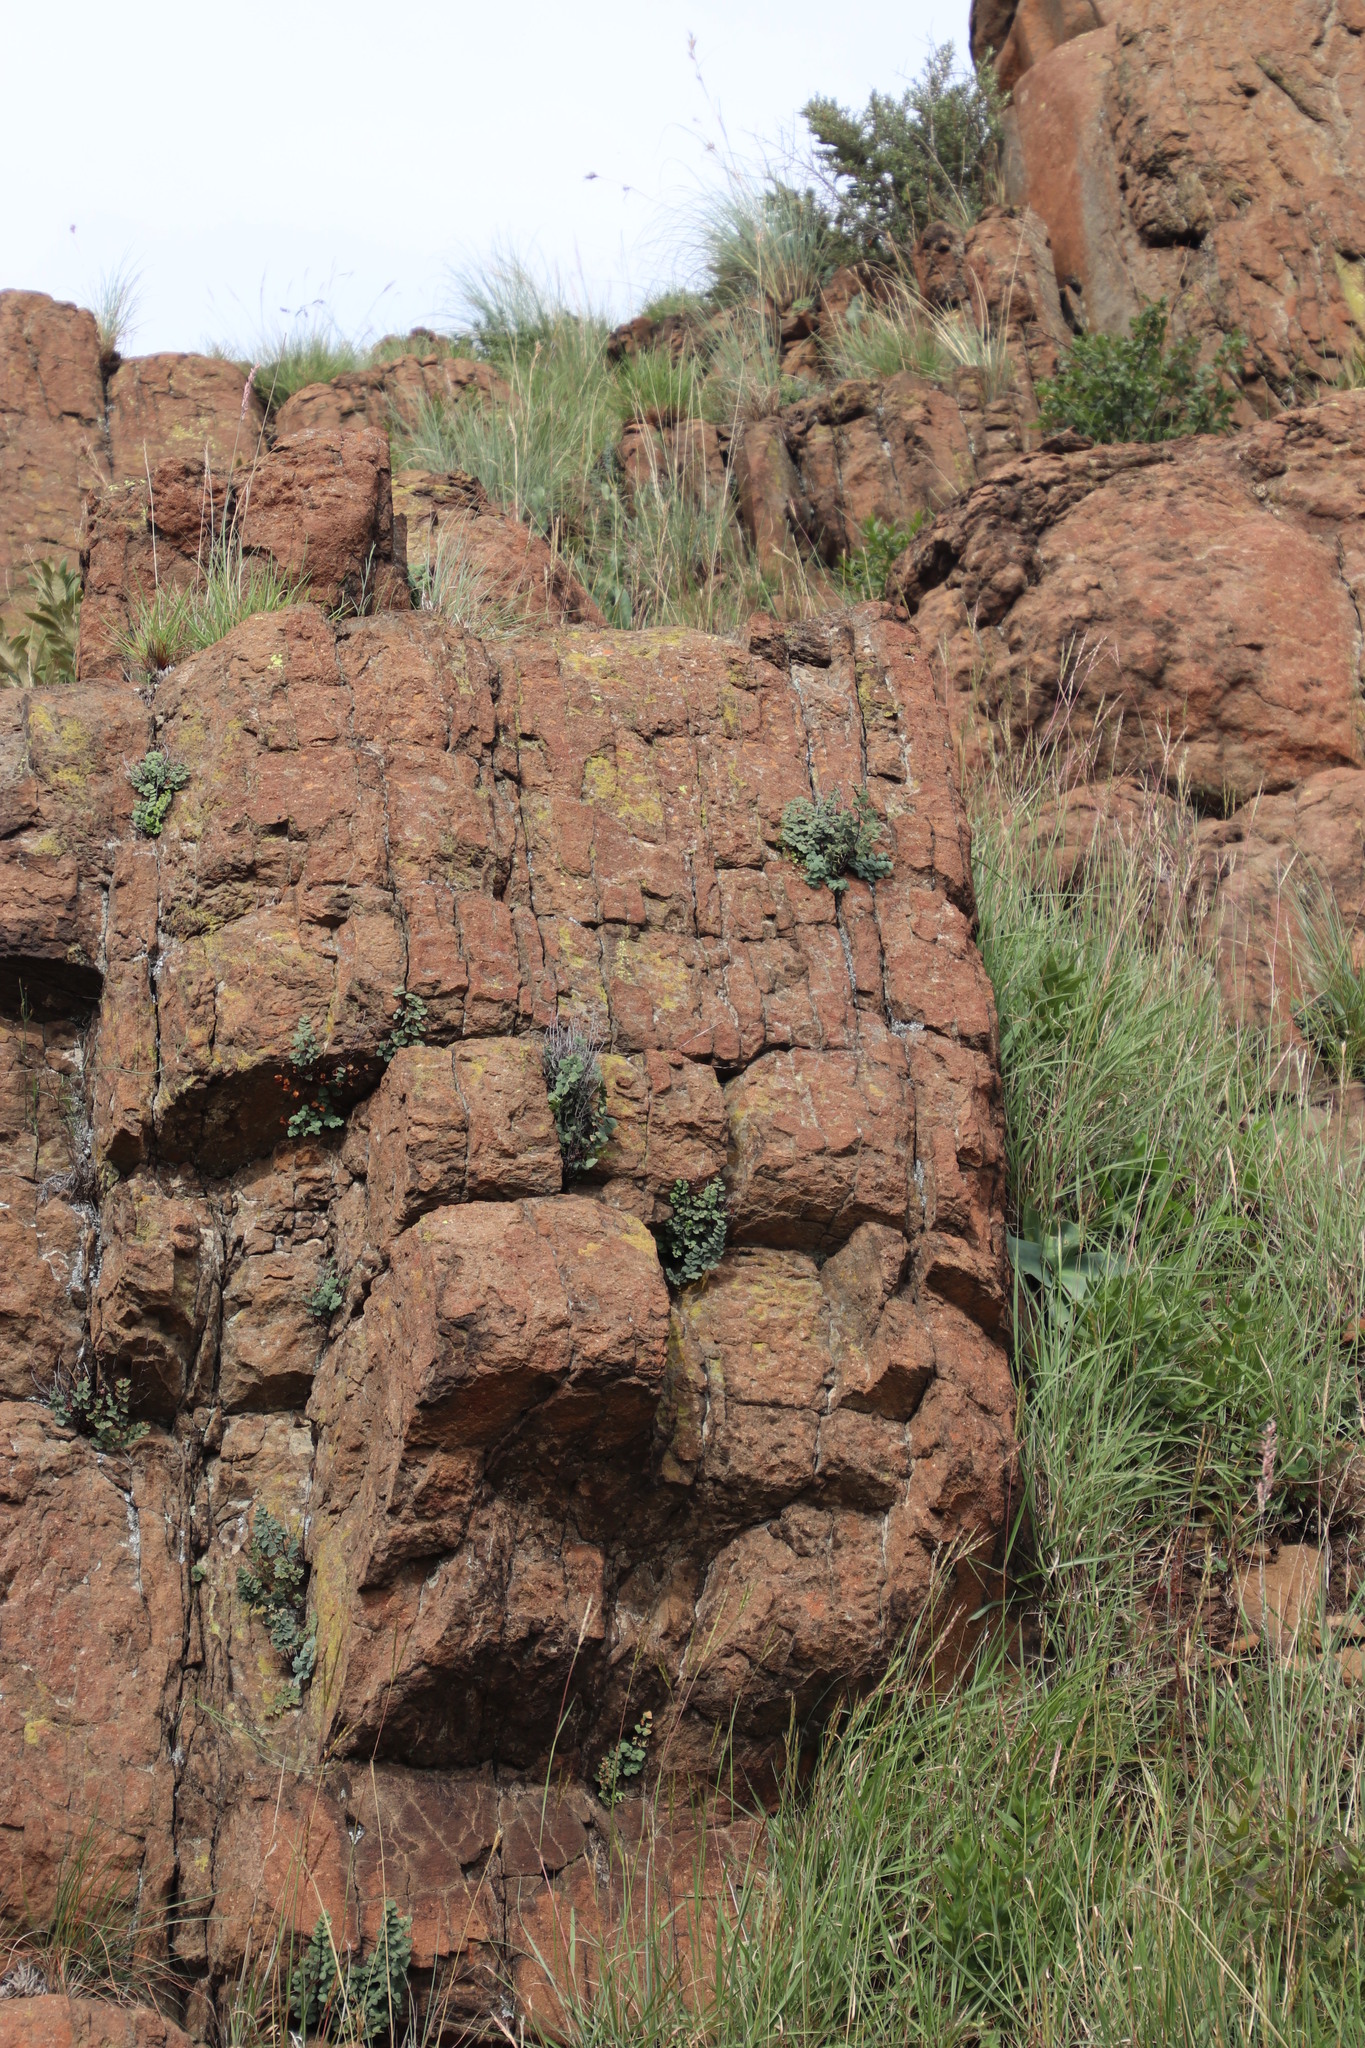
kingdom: Plantae
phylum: Tracheophyta
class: Polypodiopsida
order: Polypodiales
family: Pteridaceae
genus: Pellaea
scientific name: Pellaea calomelanos
